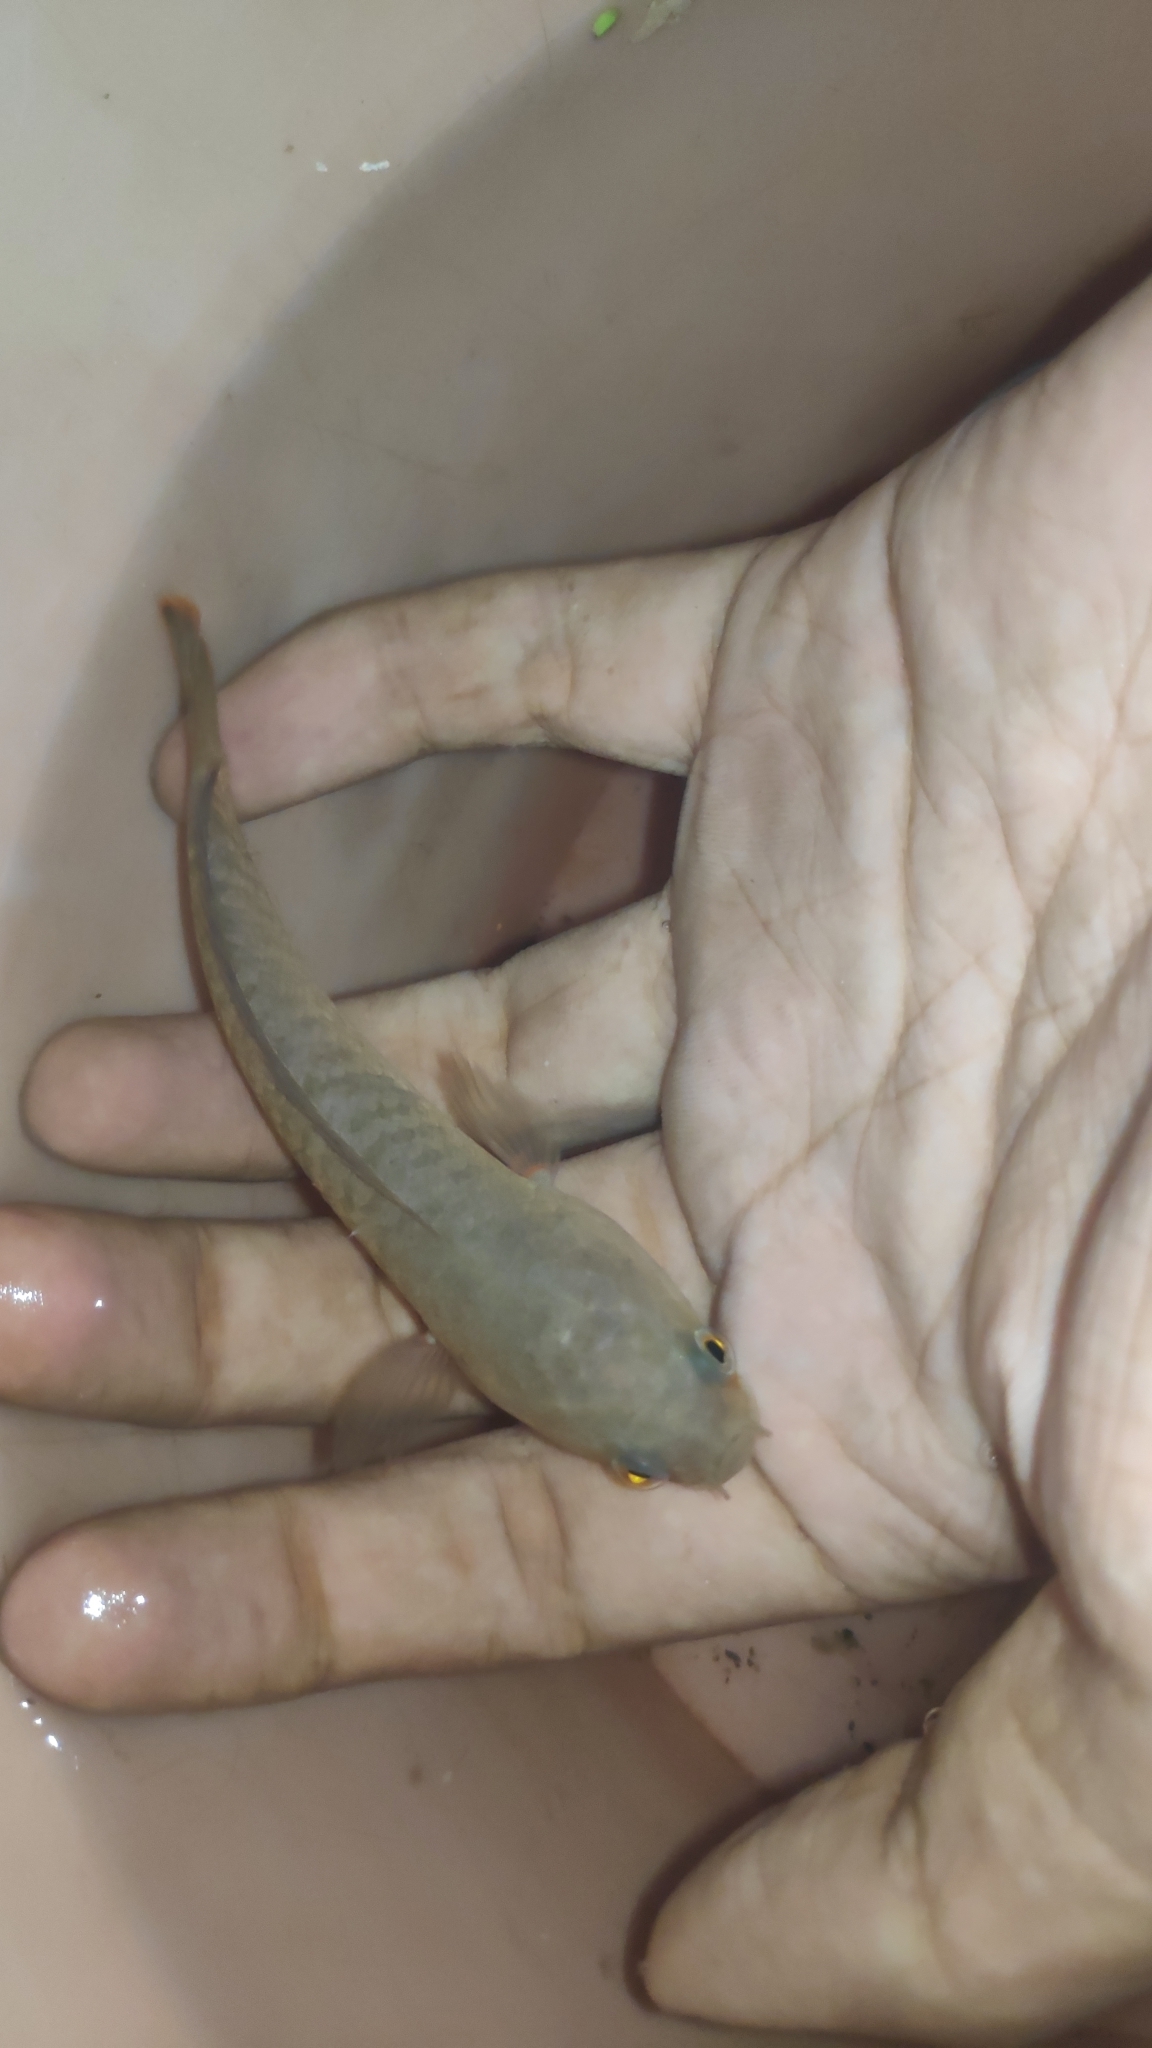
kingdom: Animalia
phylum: Chordata
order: Perciformes
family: Channidae
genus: Channa
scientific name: Channa stewartii
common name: Assamese snakehead
